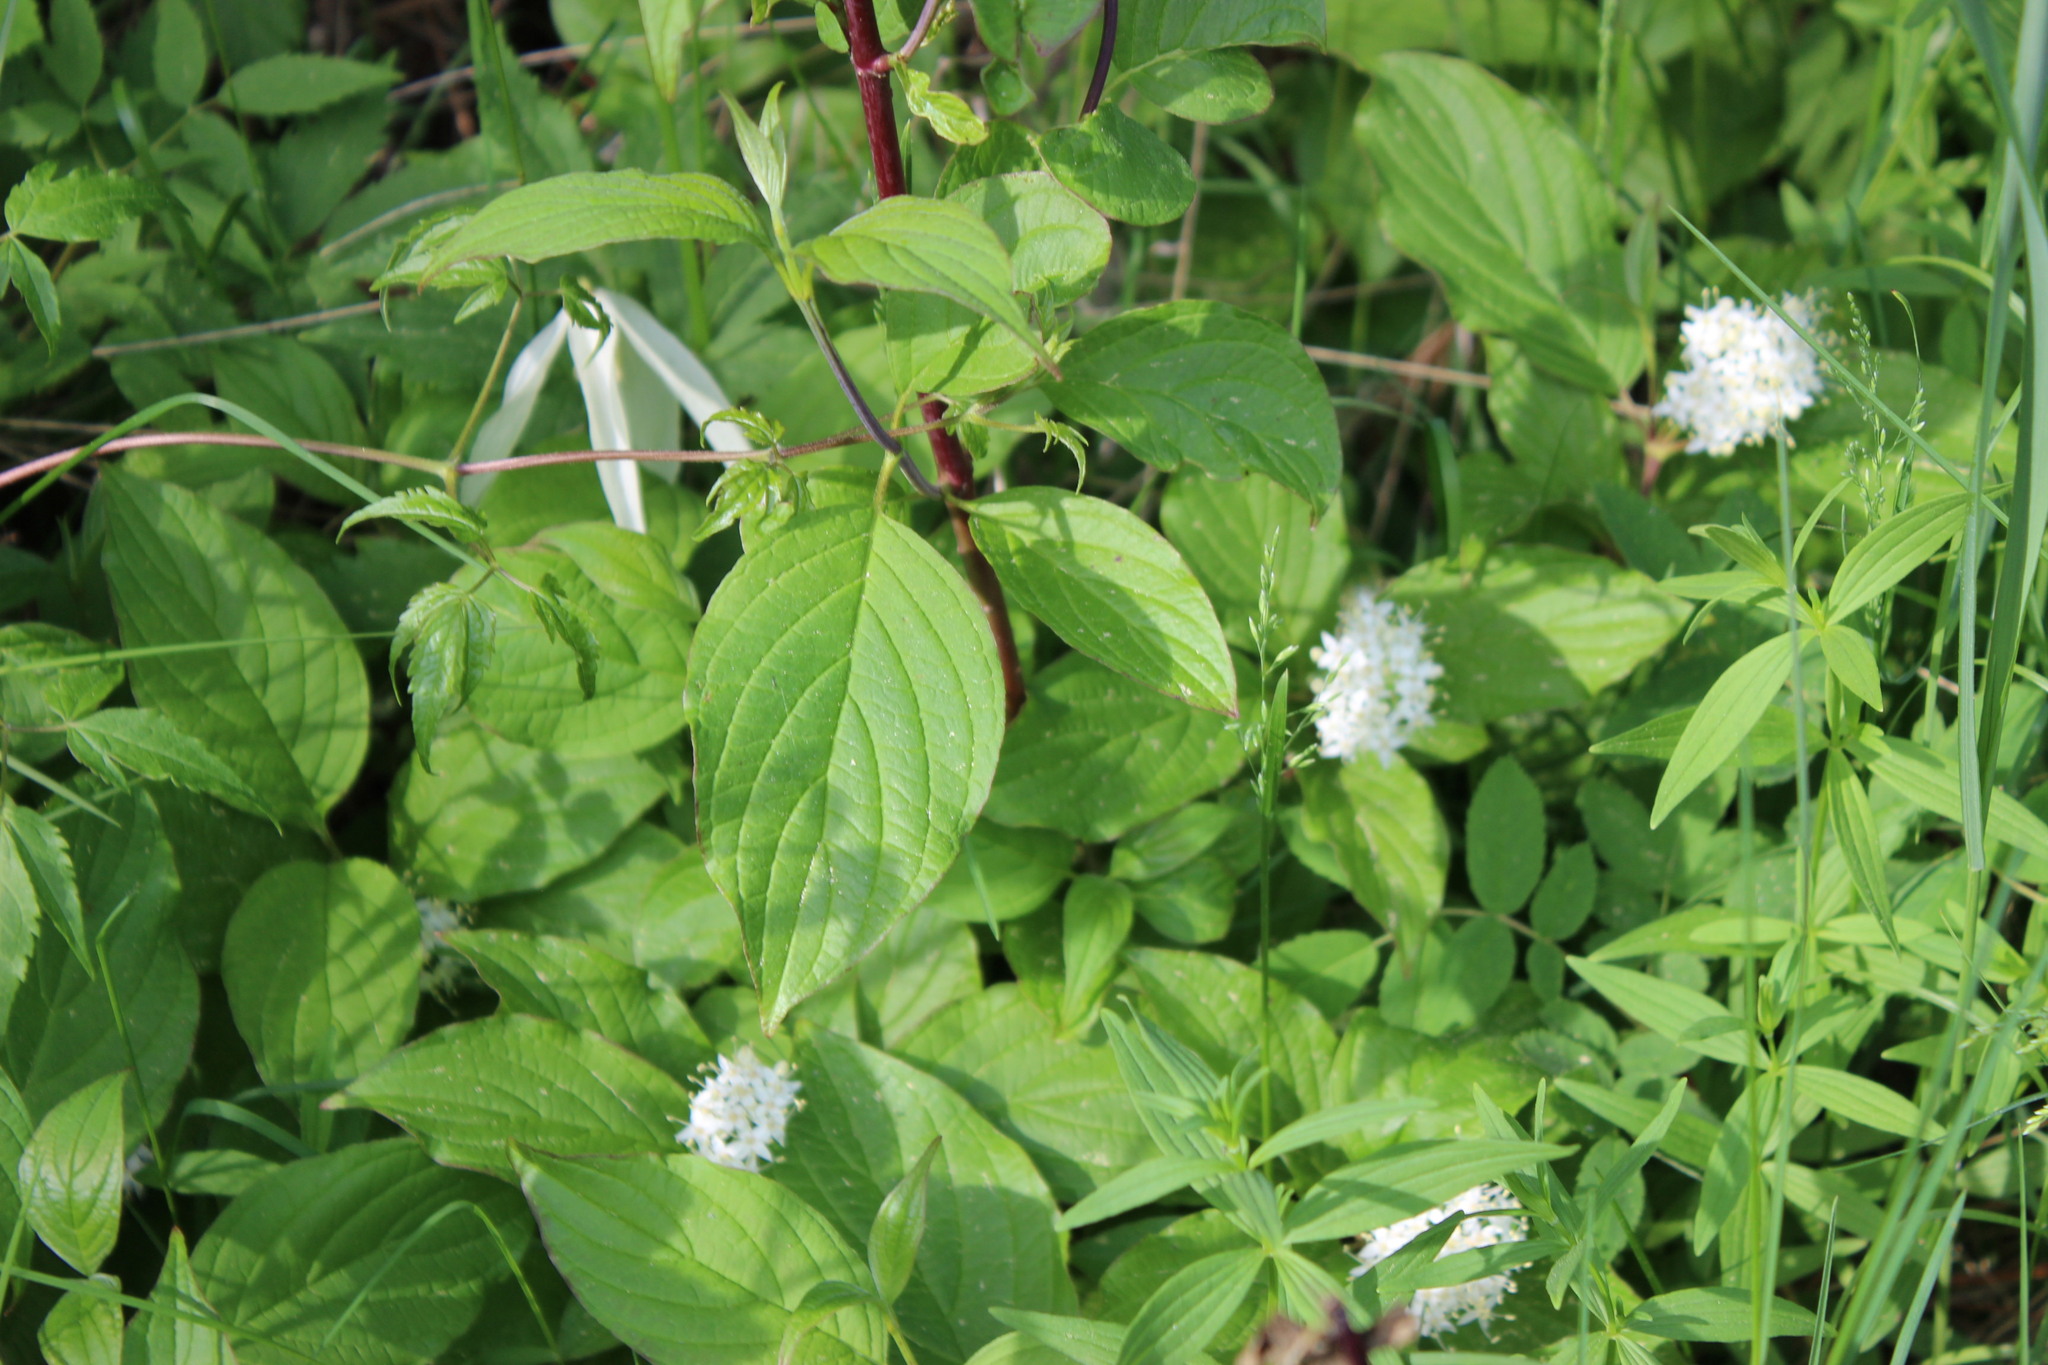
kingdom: Plantae
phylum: Tracheophyta
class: Magnoliopsida
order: Ranunculales
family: Ranunculaceae
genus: Clematis
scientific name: Clematis sibirica
